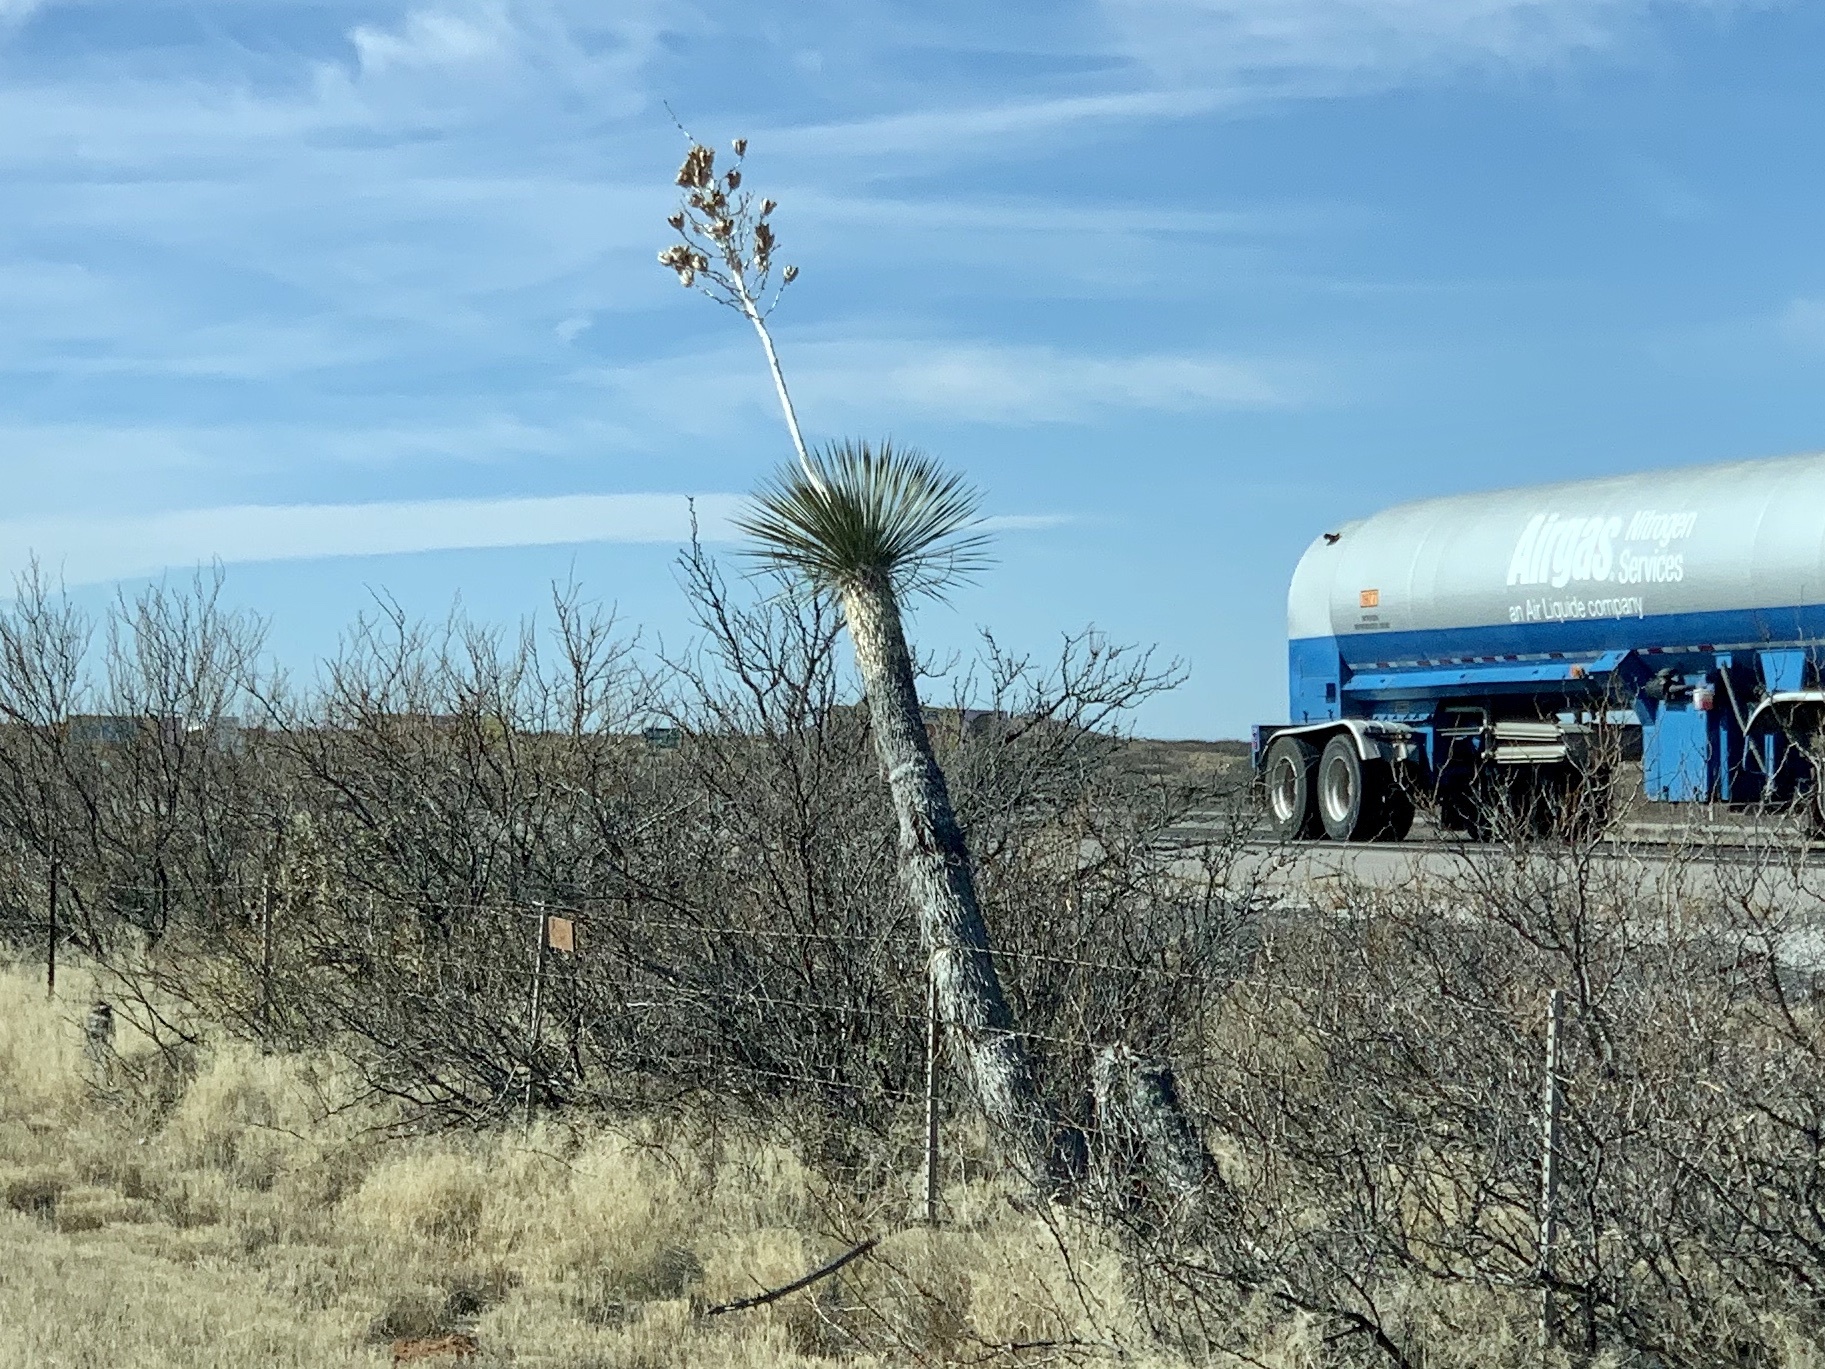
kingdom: Plantae
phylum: Tracheophyta
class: Liliopsida
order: Asparagales
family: Asparagaceae
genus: Yucca
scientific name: Yucca elata
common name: Palmella
